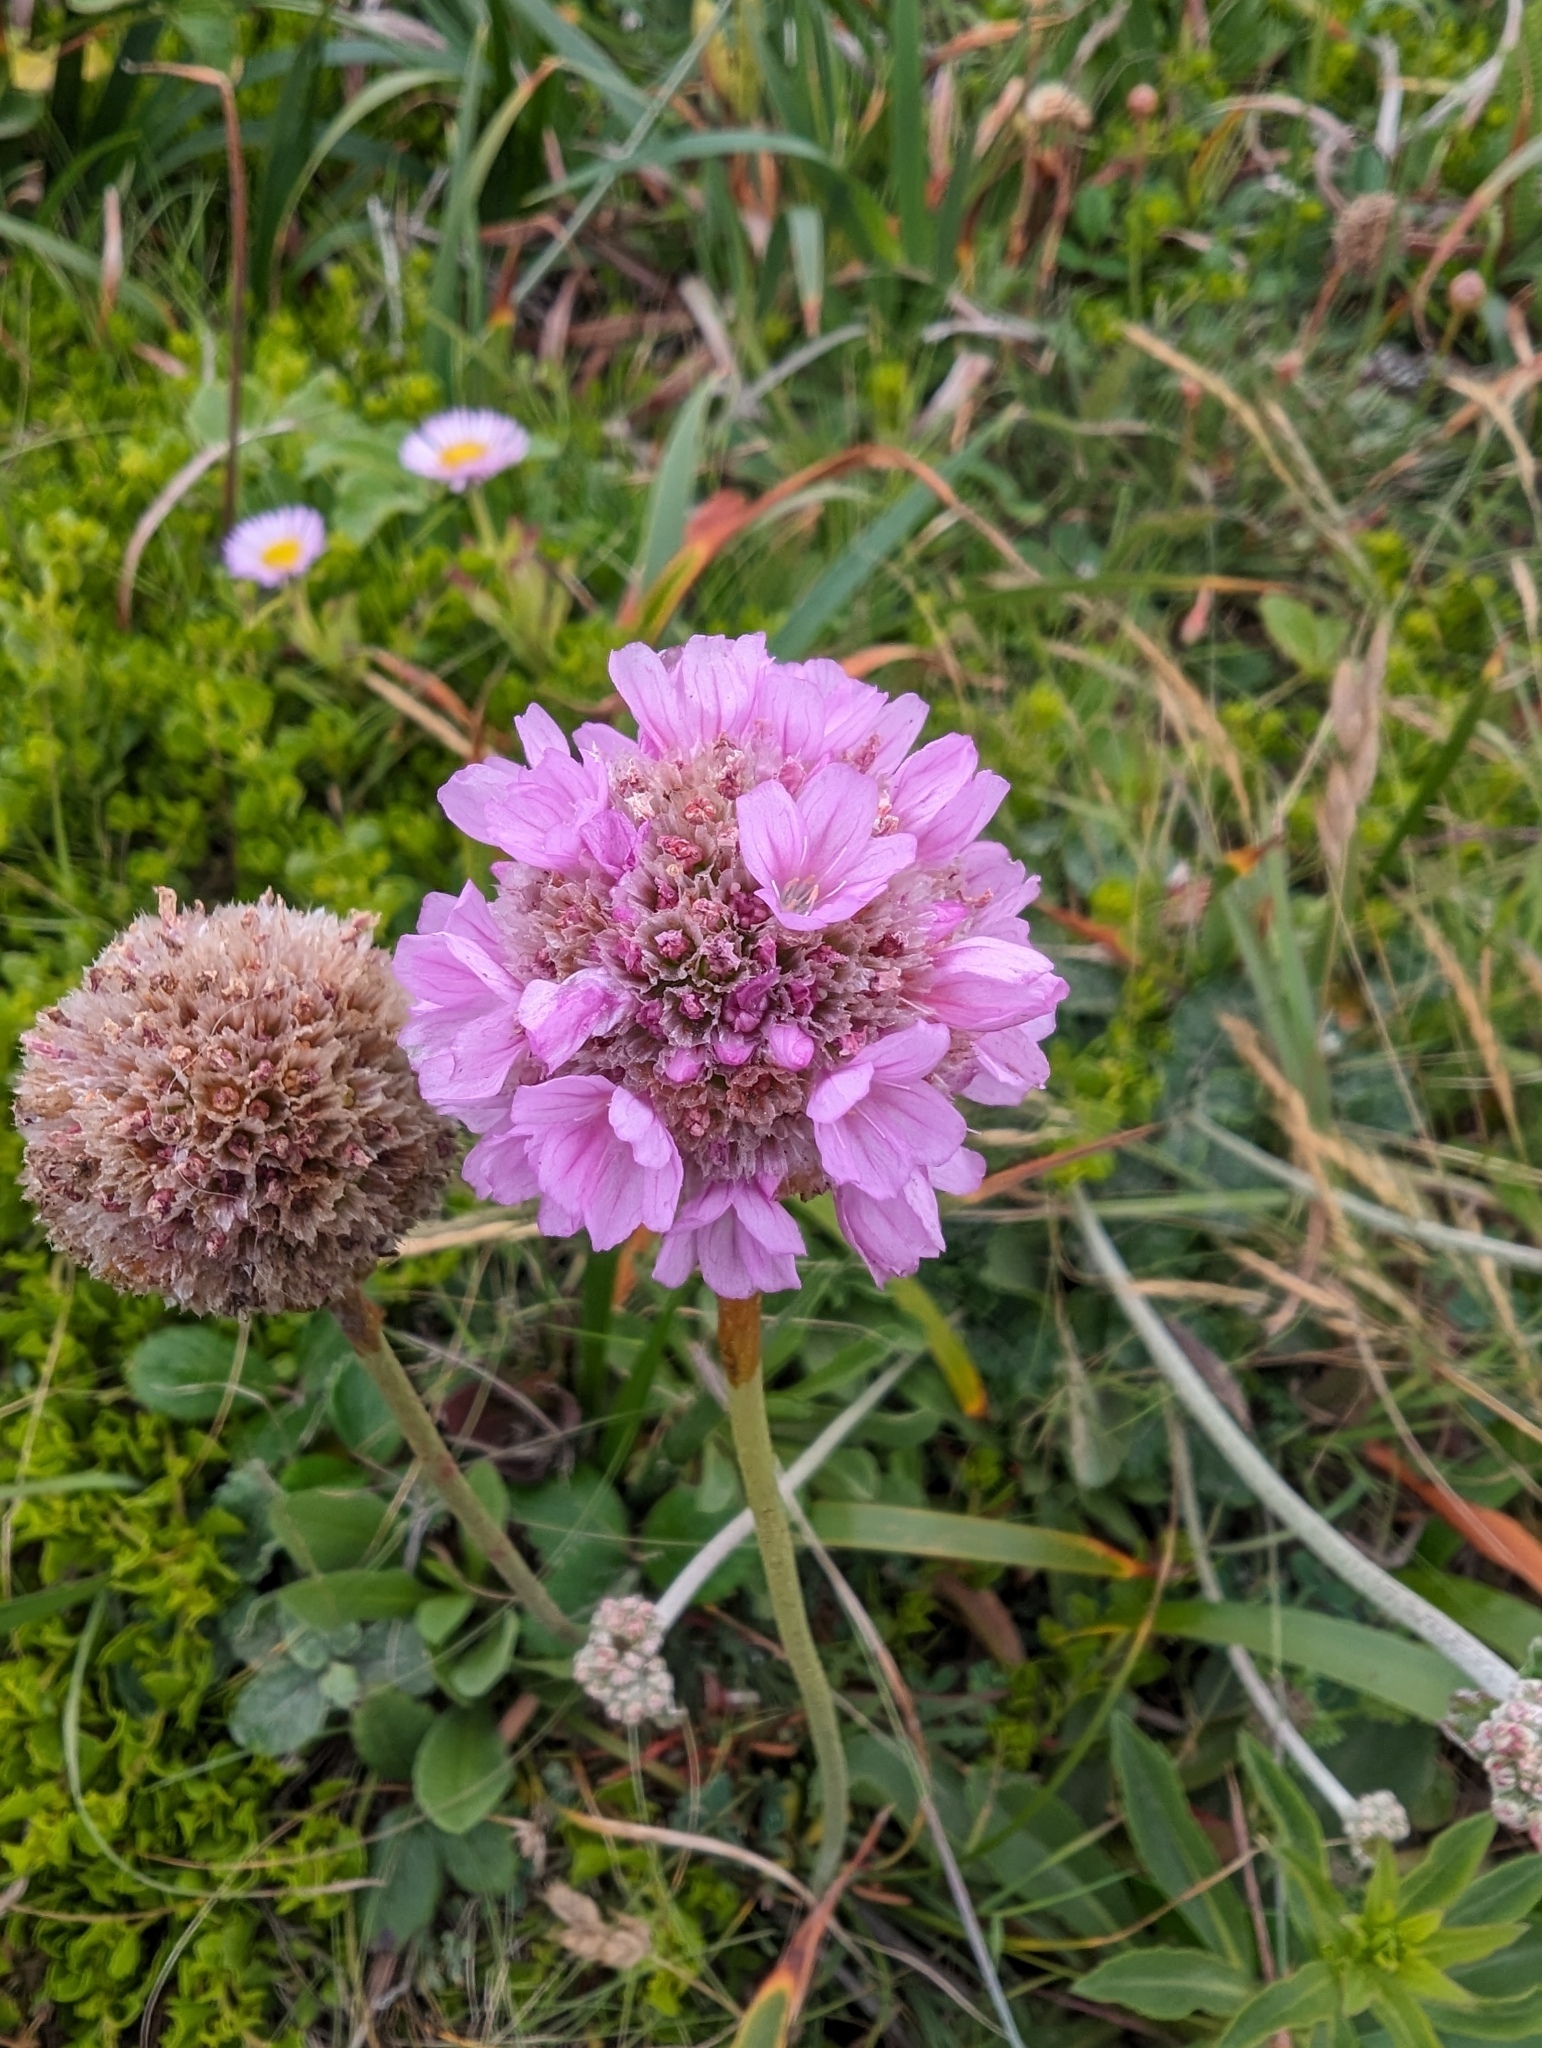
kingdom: Plantae
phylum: Tracheophyta
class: Magnoliopsida
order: Caryophyllales
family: Plumbaginaceae
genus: Armeria
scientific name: Armeria maritima
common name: Thrift
